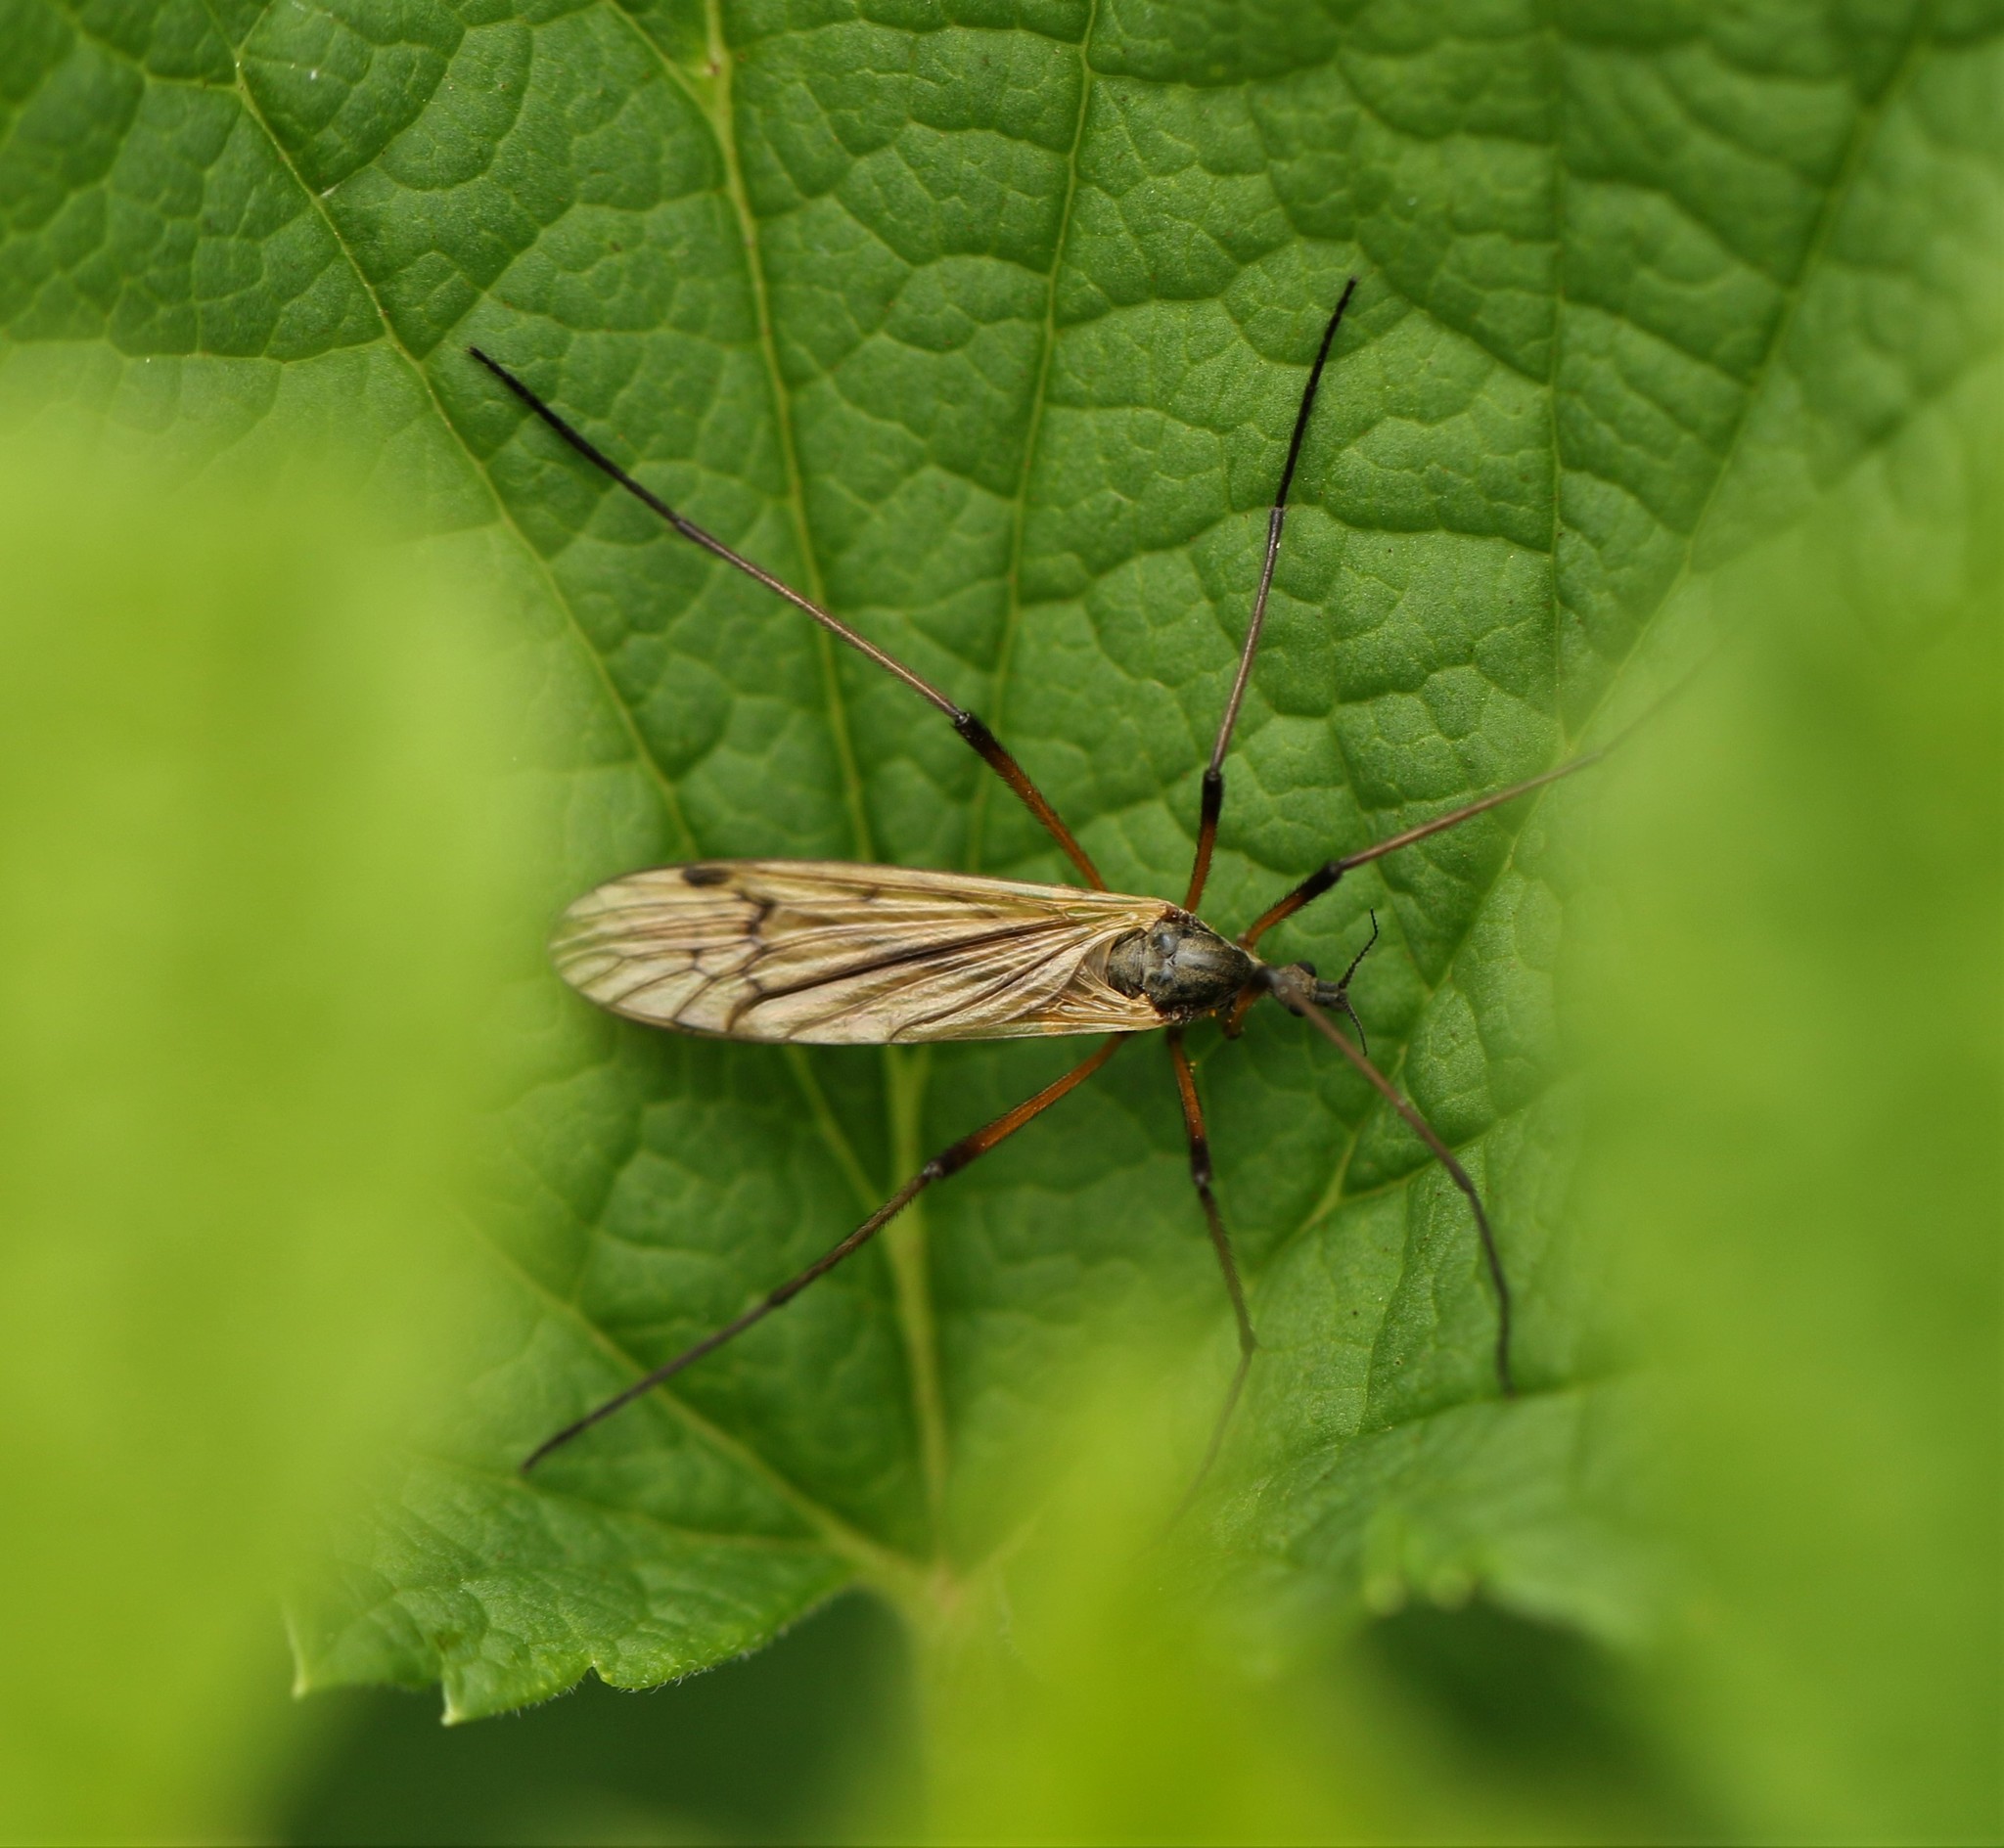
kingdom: Animalia
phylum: Arthropoda
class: Insecta
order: Diptera
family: Limoniidae
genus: Prionolabis
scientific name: Prionolabis rufibasis
